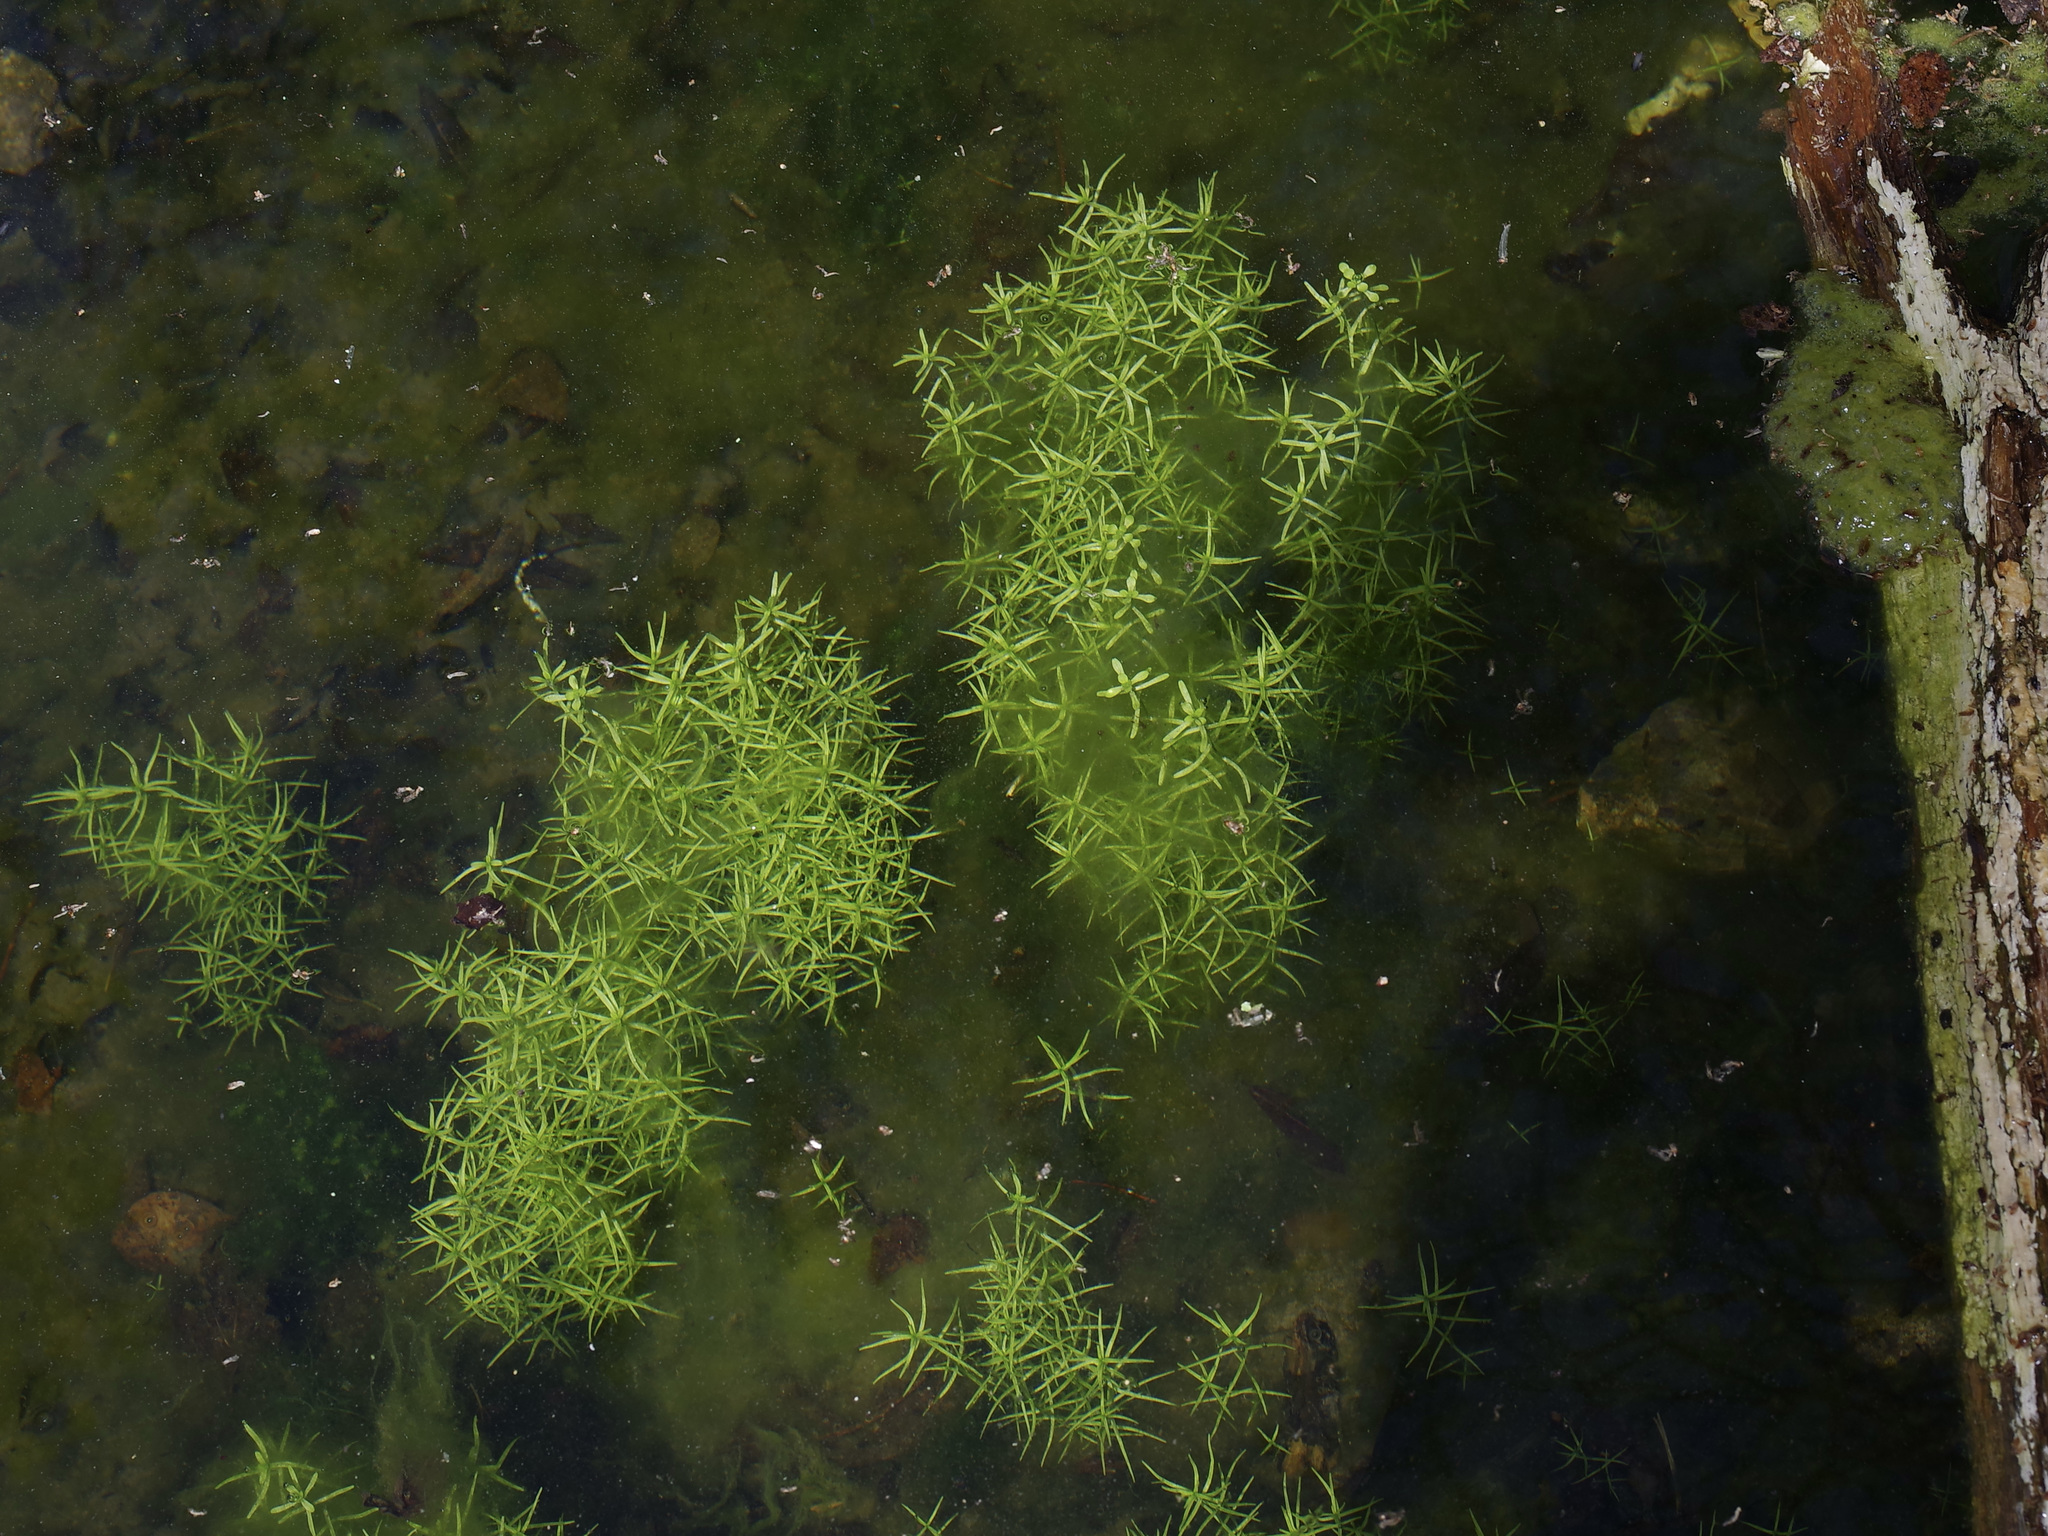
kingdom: Plantae
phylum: Tracheophyta
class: Magnoliopsida
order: Lamiales
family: Plantaginaceae
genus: Callitriche
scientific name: Callitriche heterophylla
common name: Two-headed water-starwort
